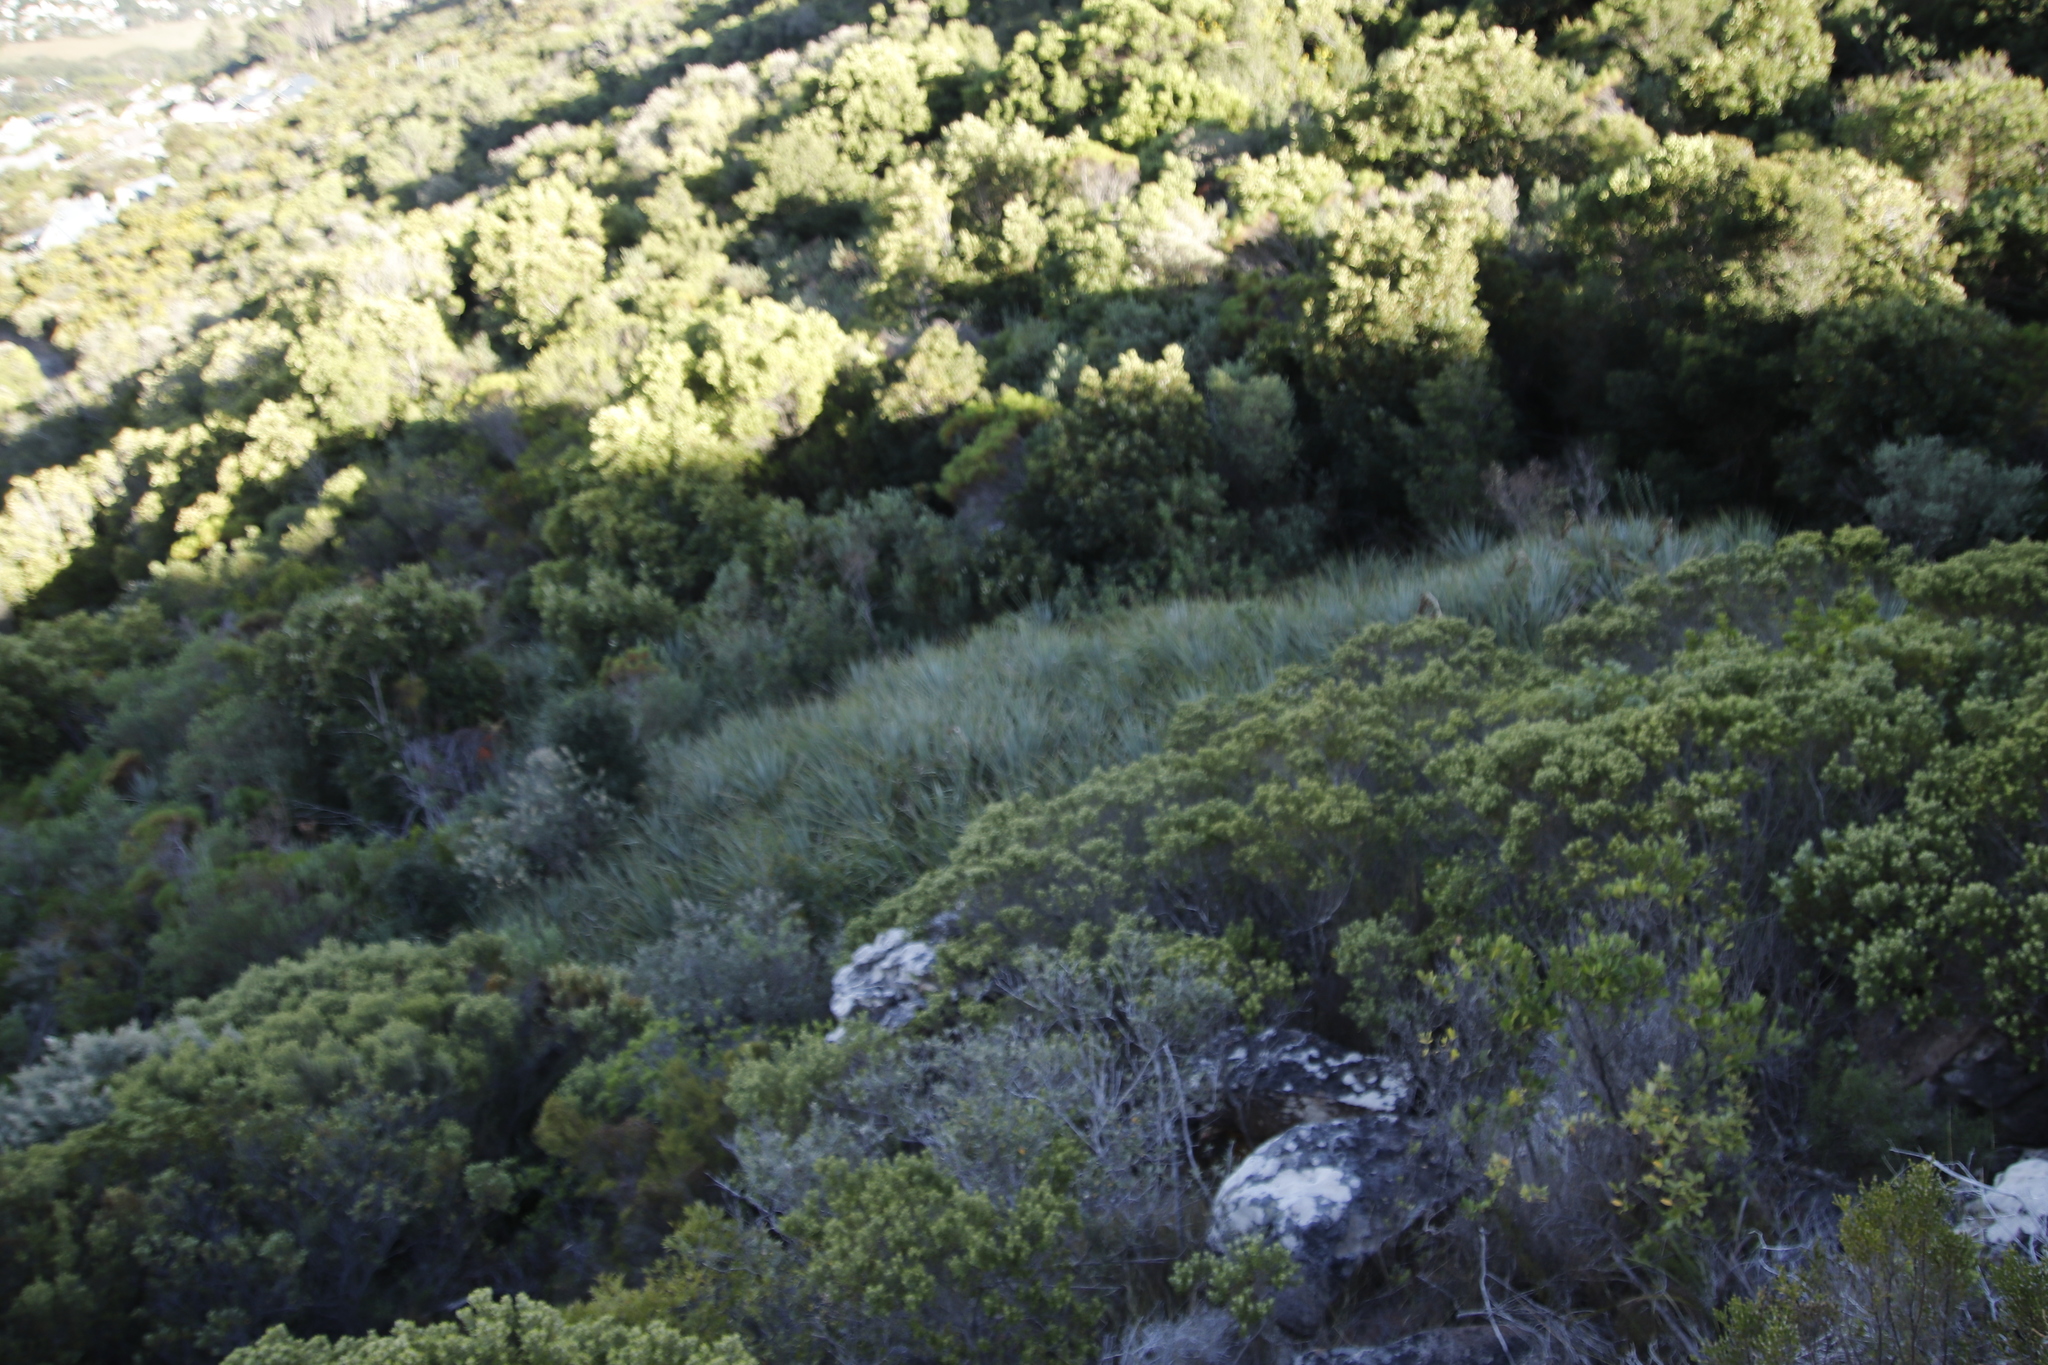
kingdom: Plantae
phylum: Tracheophyta
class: Liliopsida
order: Poales
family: Thurniaceae
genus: Prionium
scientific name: Prionium serratum
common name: Palmiet
